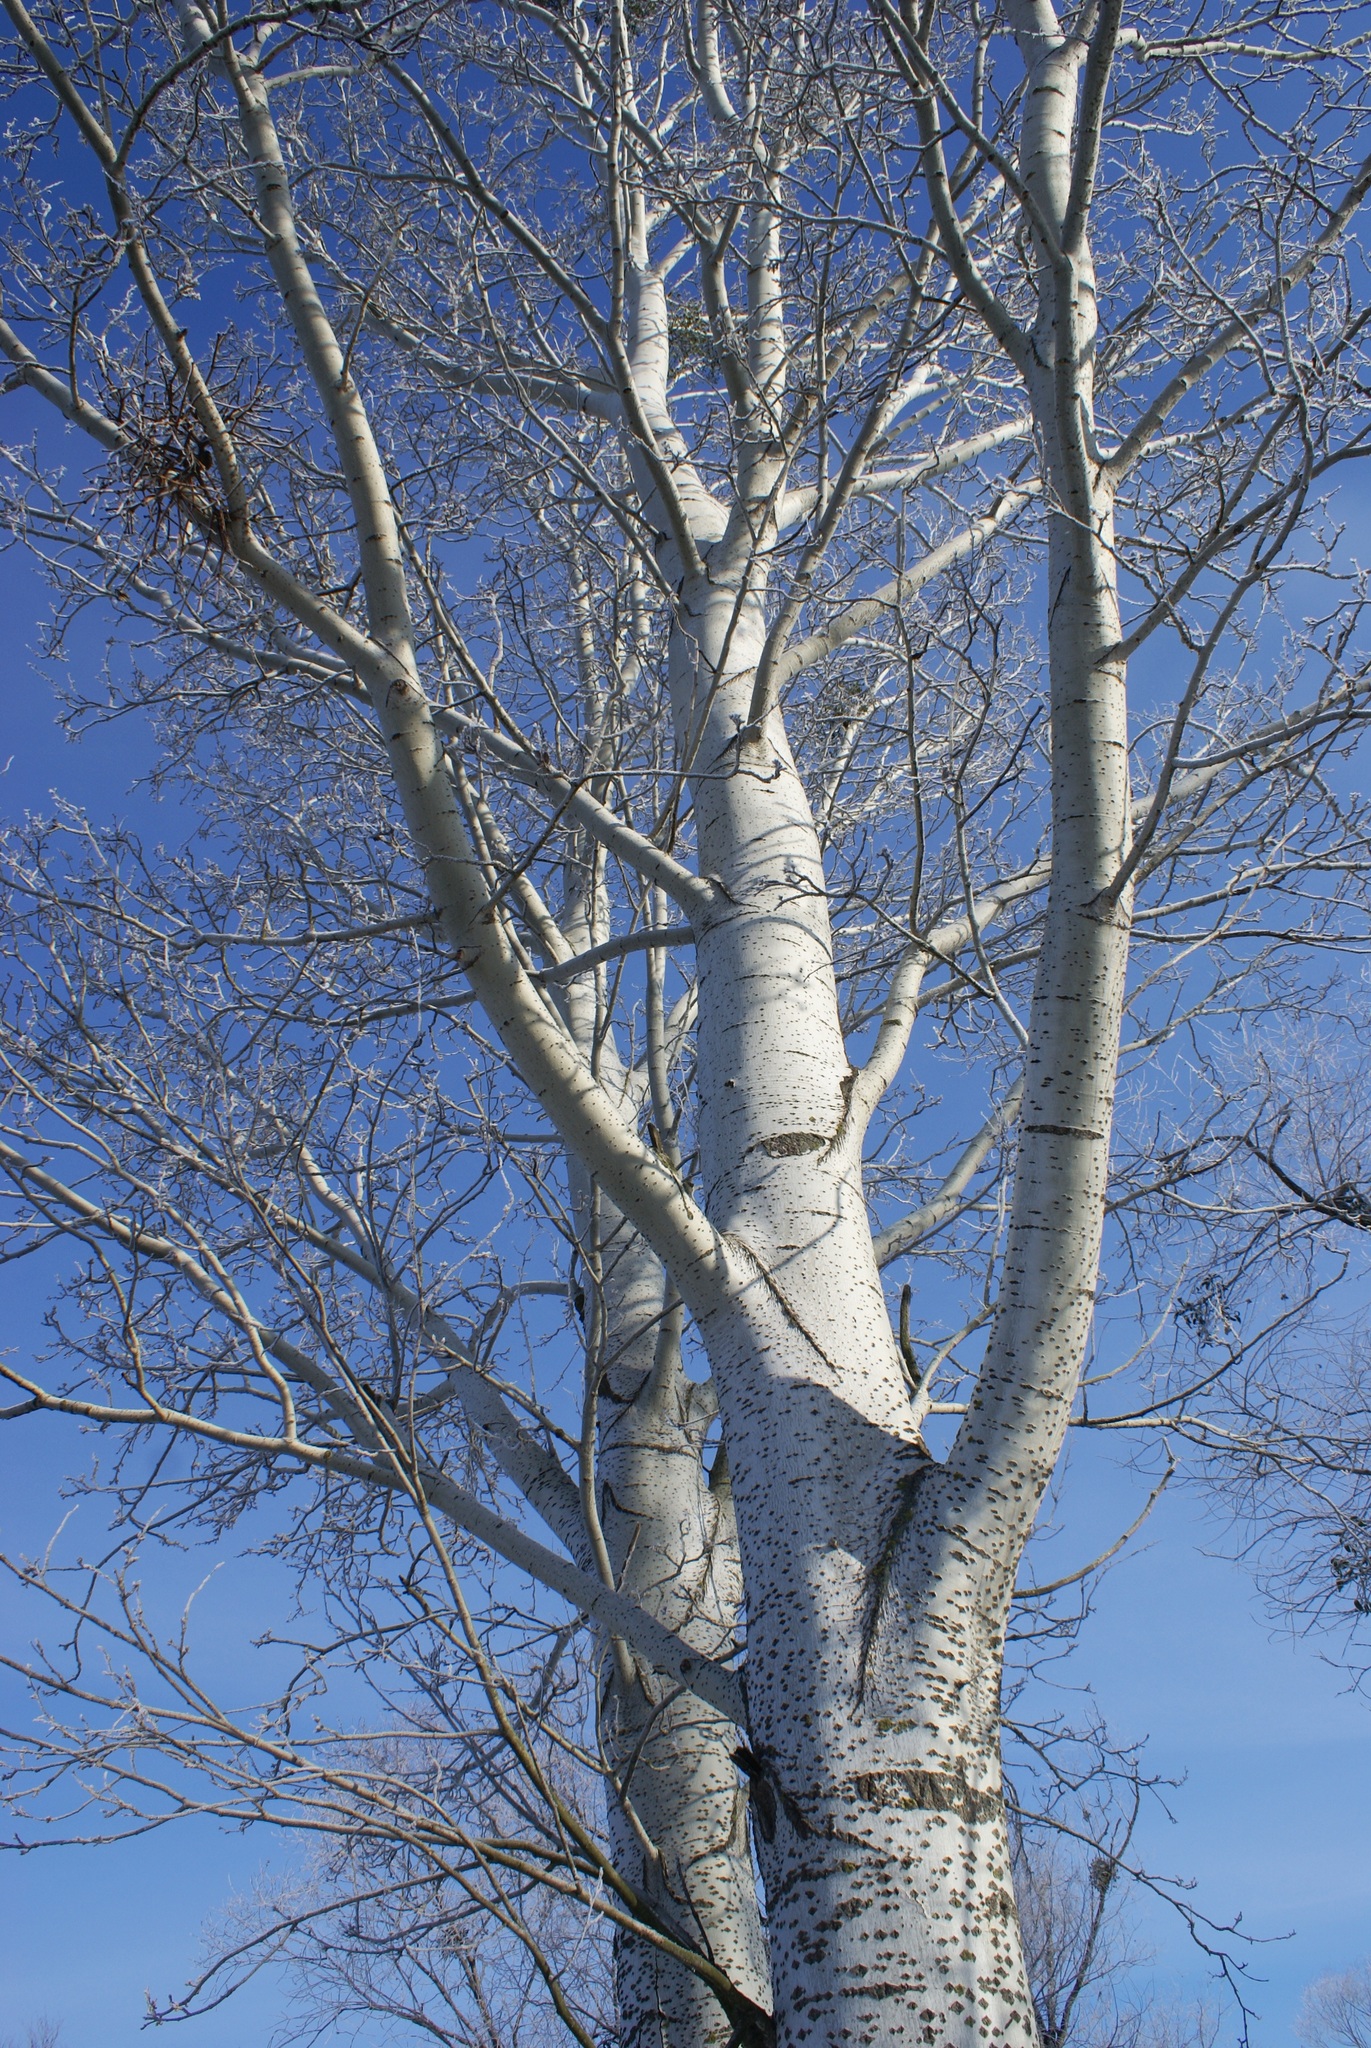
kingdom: Plantae
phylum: Tracheophyta
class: Magnoliopsida
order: Malpighiales
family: Salicaceae
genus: Populus
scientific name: Populus alba
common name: White poplar
